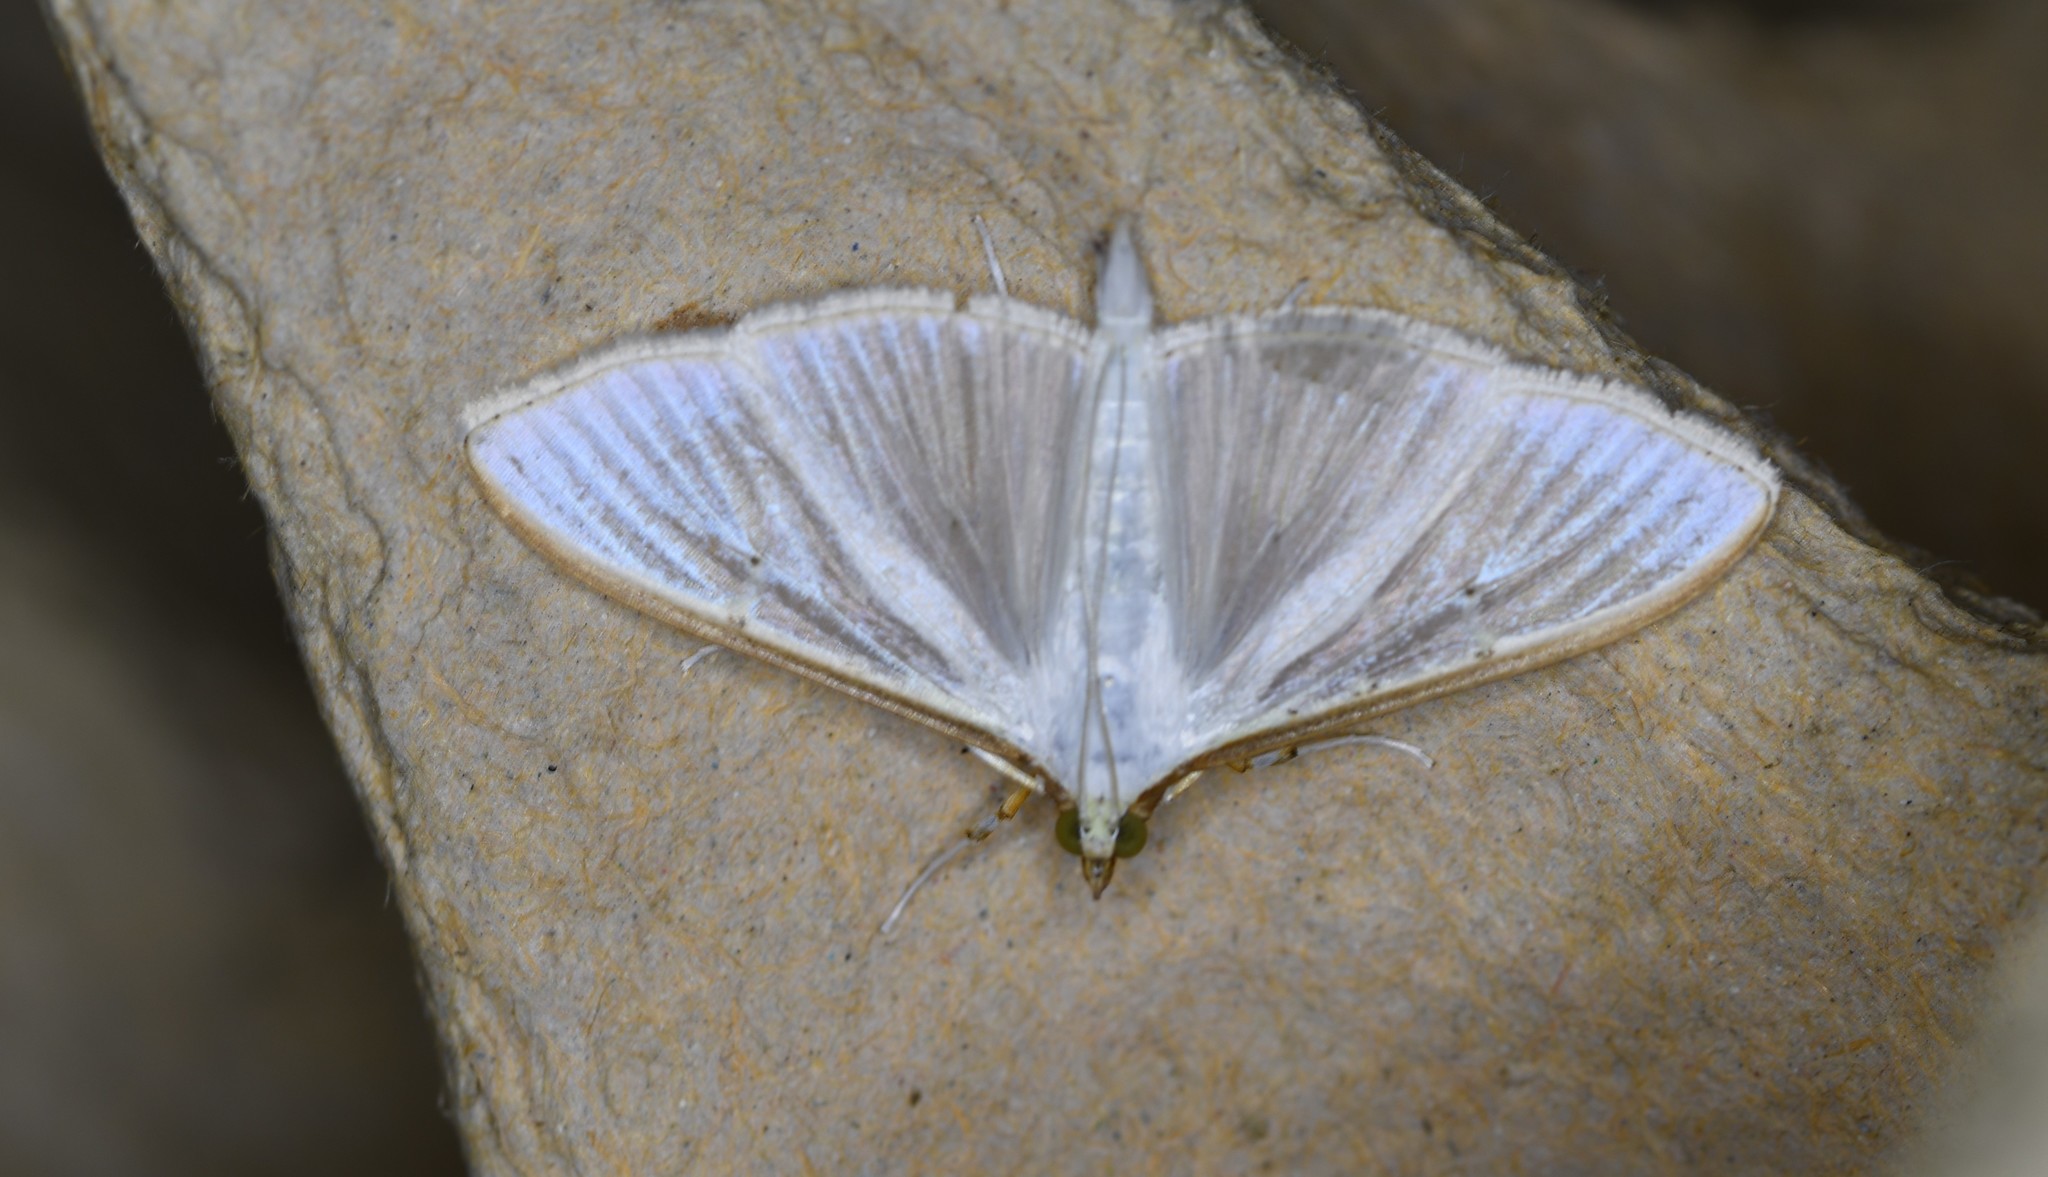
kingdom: Animalia
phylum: Arthropoda
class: Insecta
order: Lepidoptera
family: Crambidae
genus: Palpita
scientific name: Palpita vitrealis
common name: Olive-tree pearl
